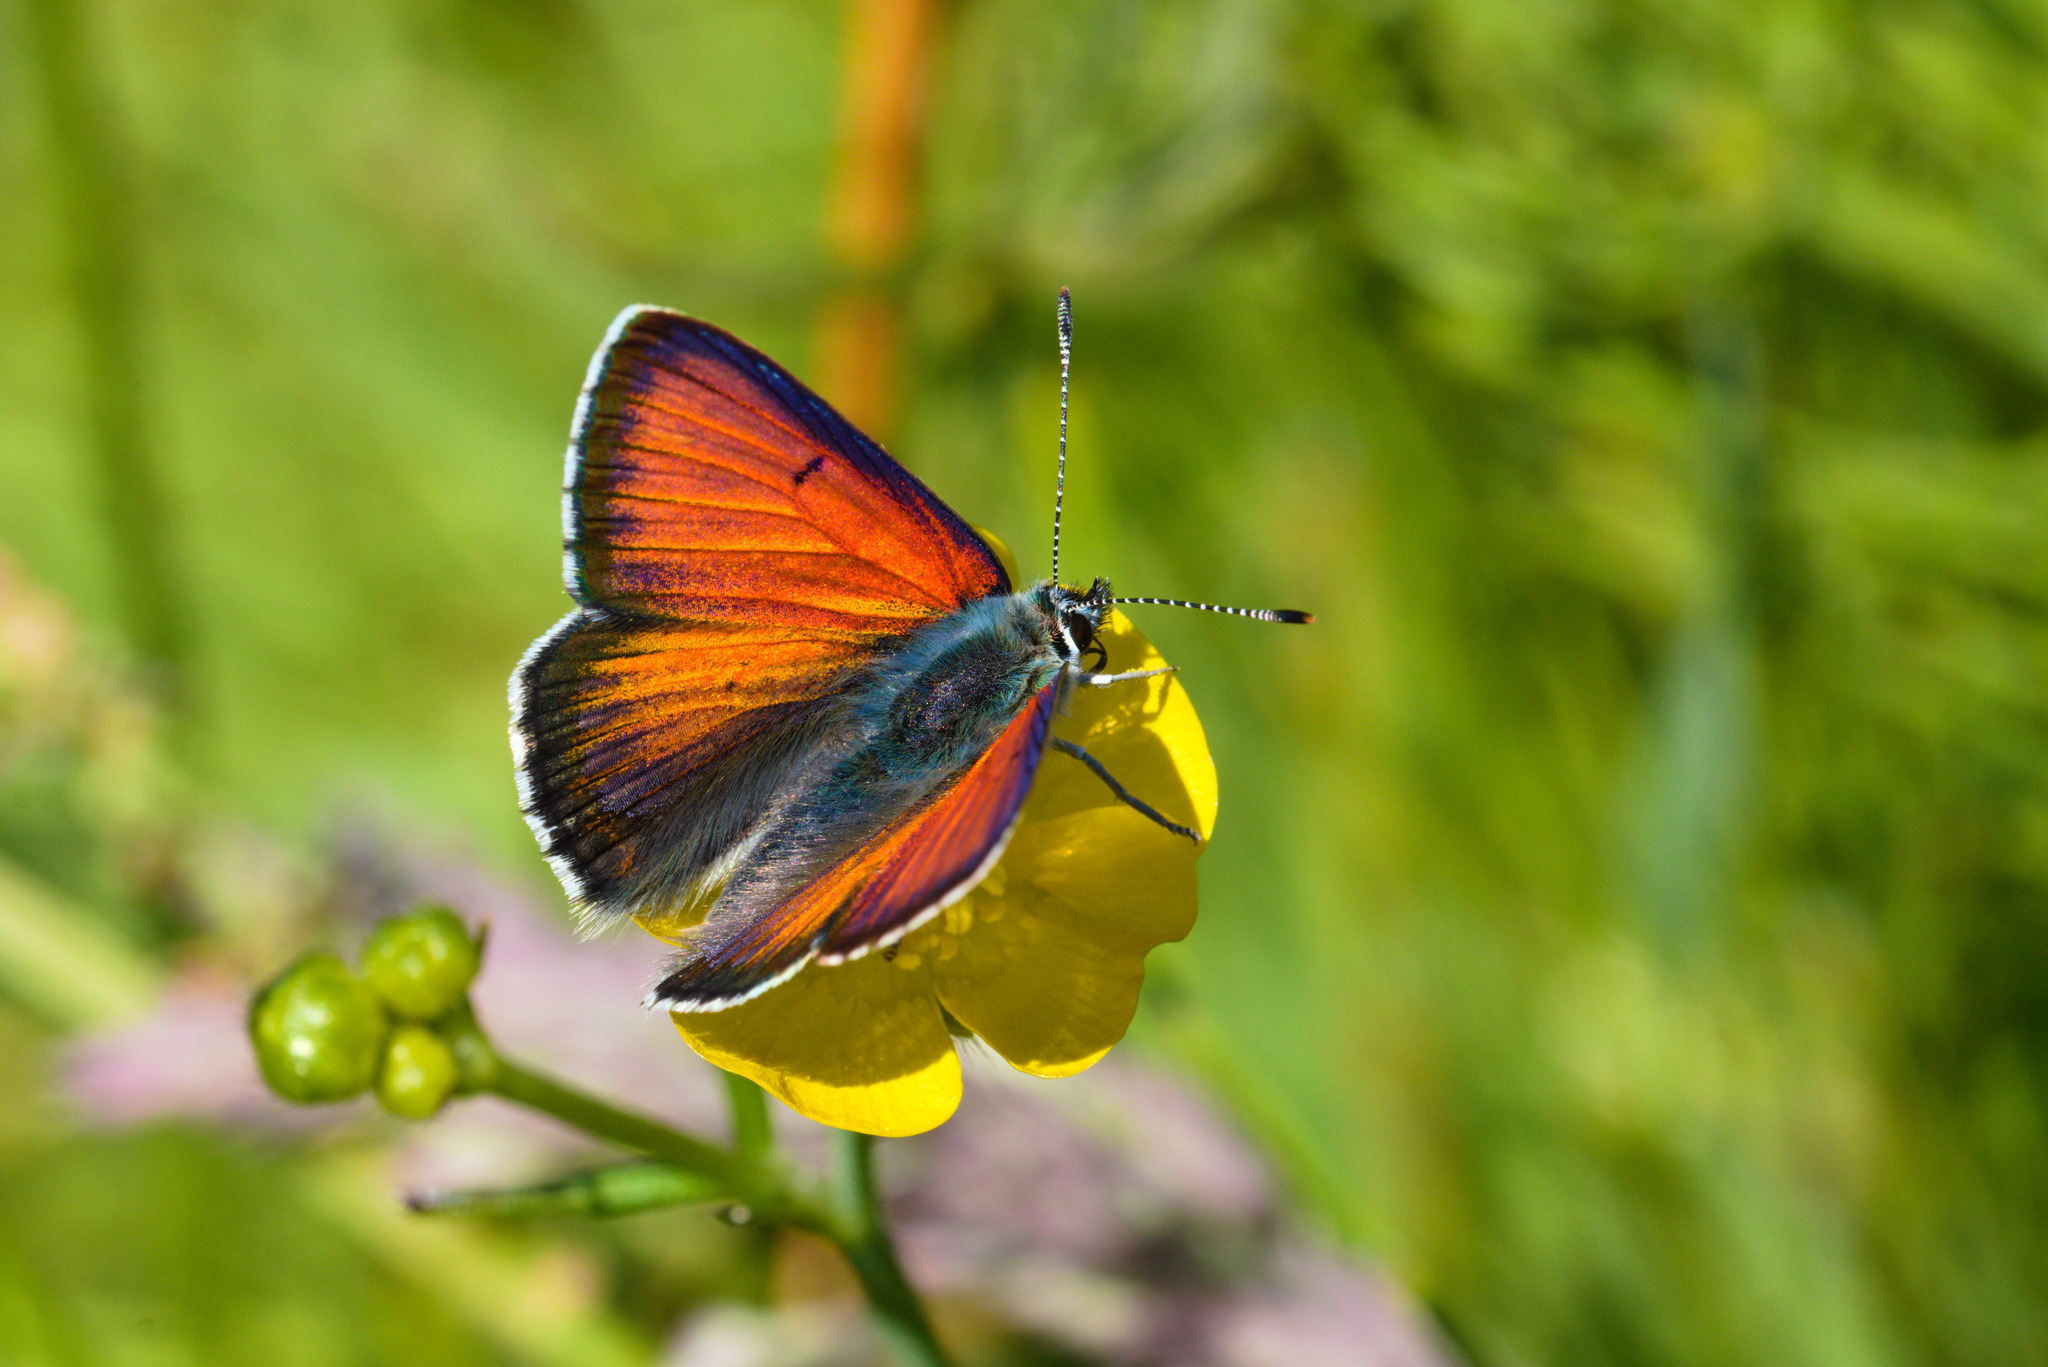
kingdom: Animalia
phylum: Arthropoda
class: Insecta
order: Lepidoptera
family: Lycaenidae
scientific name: Lycaenidae
